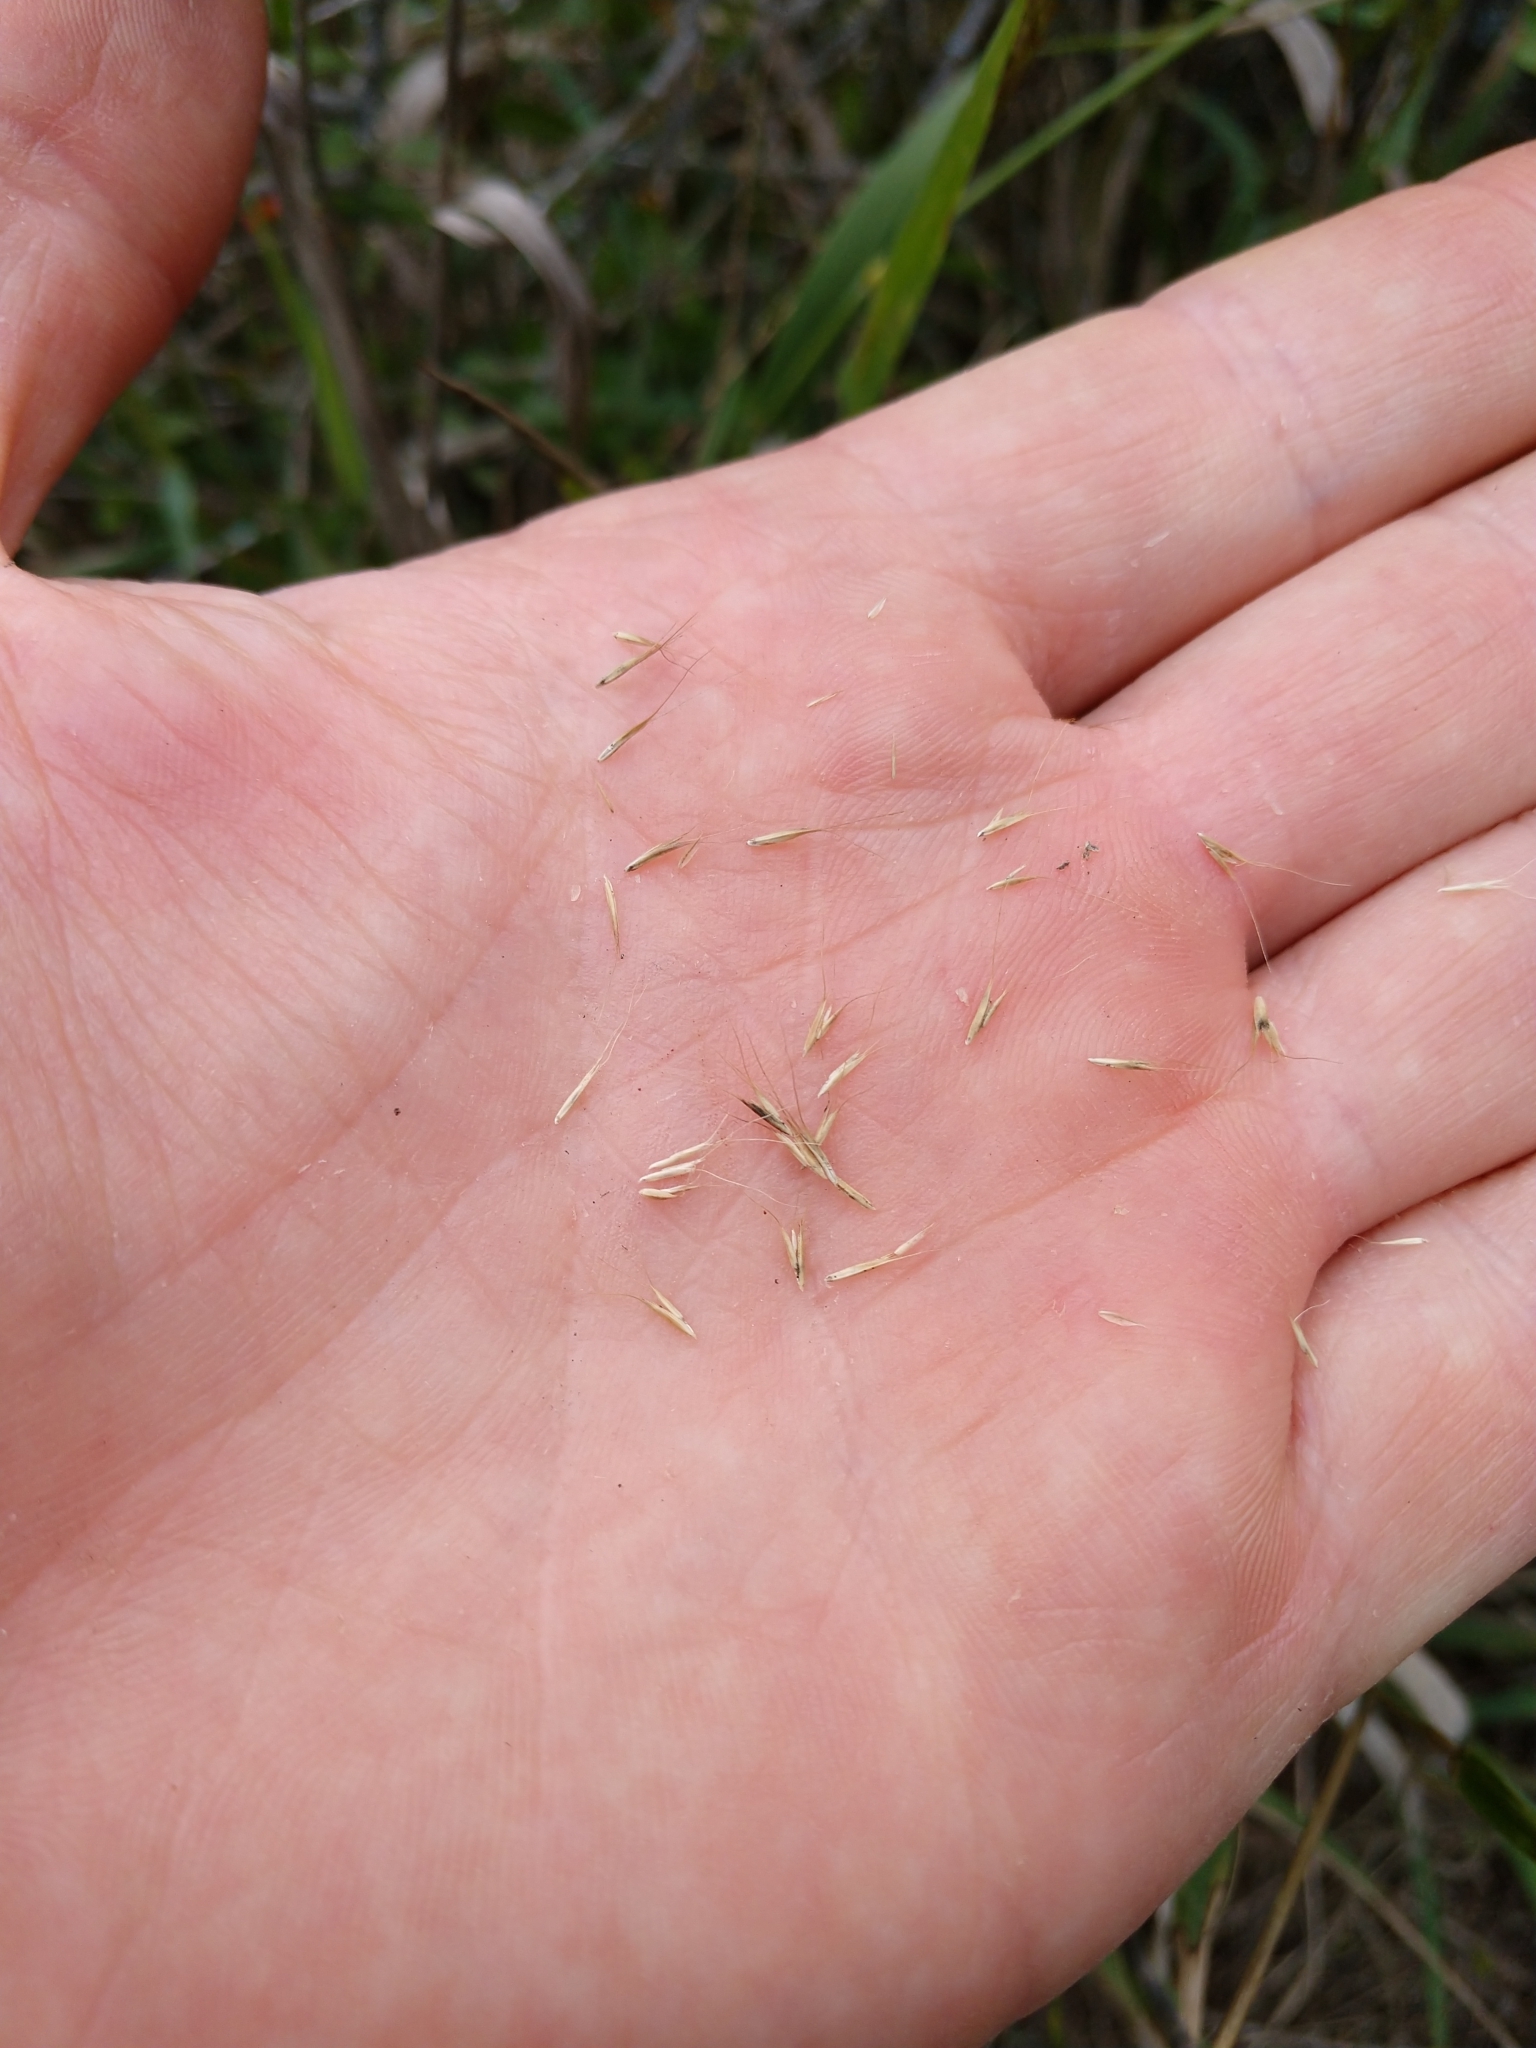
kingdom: Plantae
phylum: Tracheophyta
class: Liliopsida
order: Poales
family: Poaceae
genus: Leptochloa
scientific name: Leptochloa pluriflora
